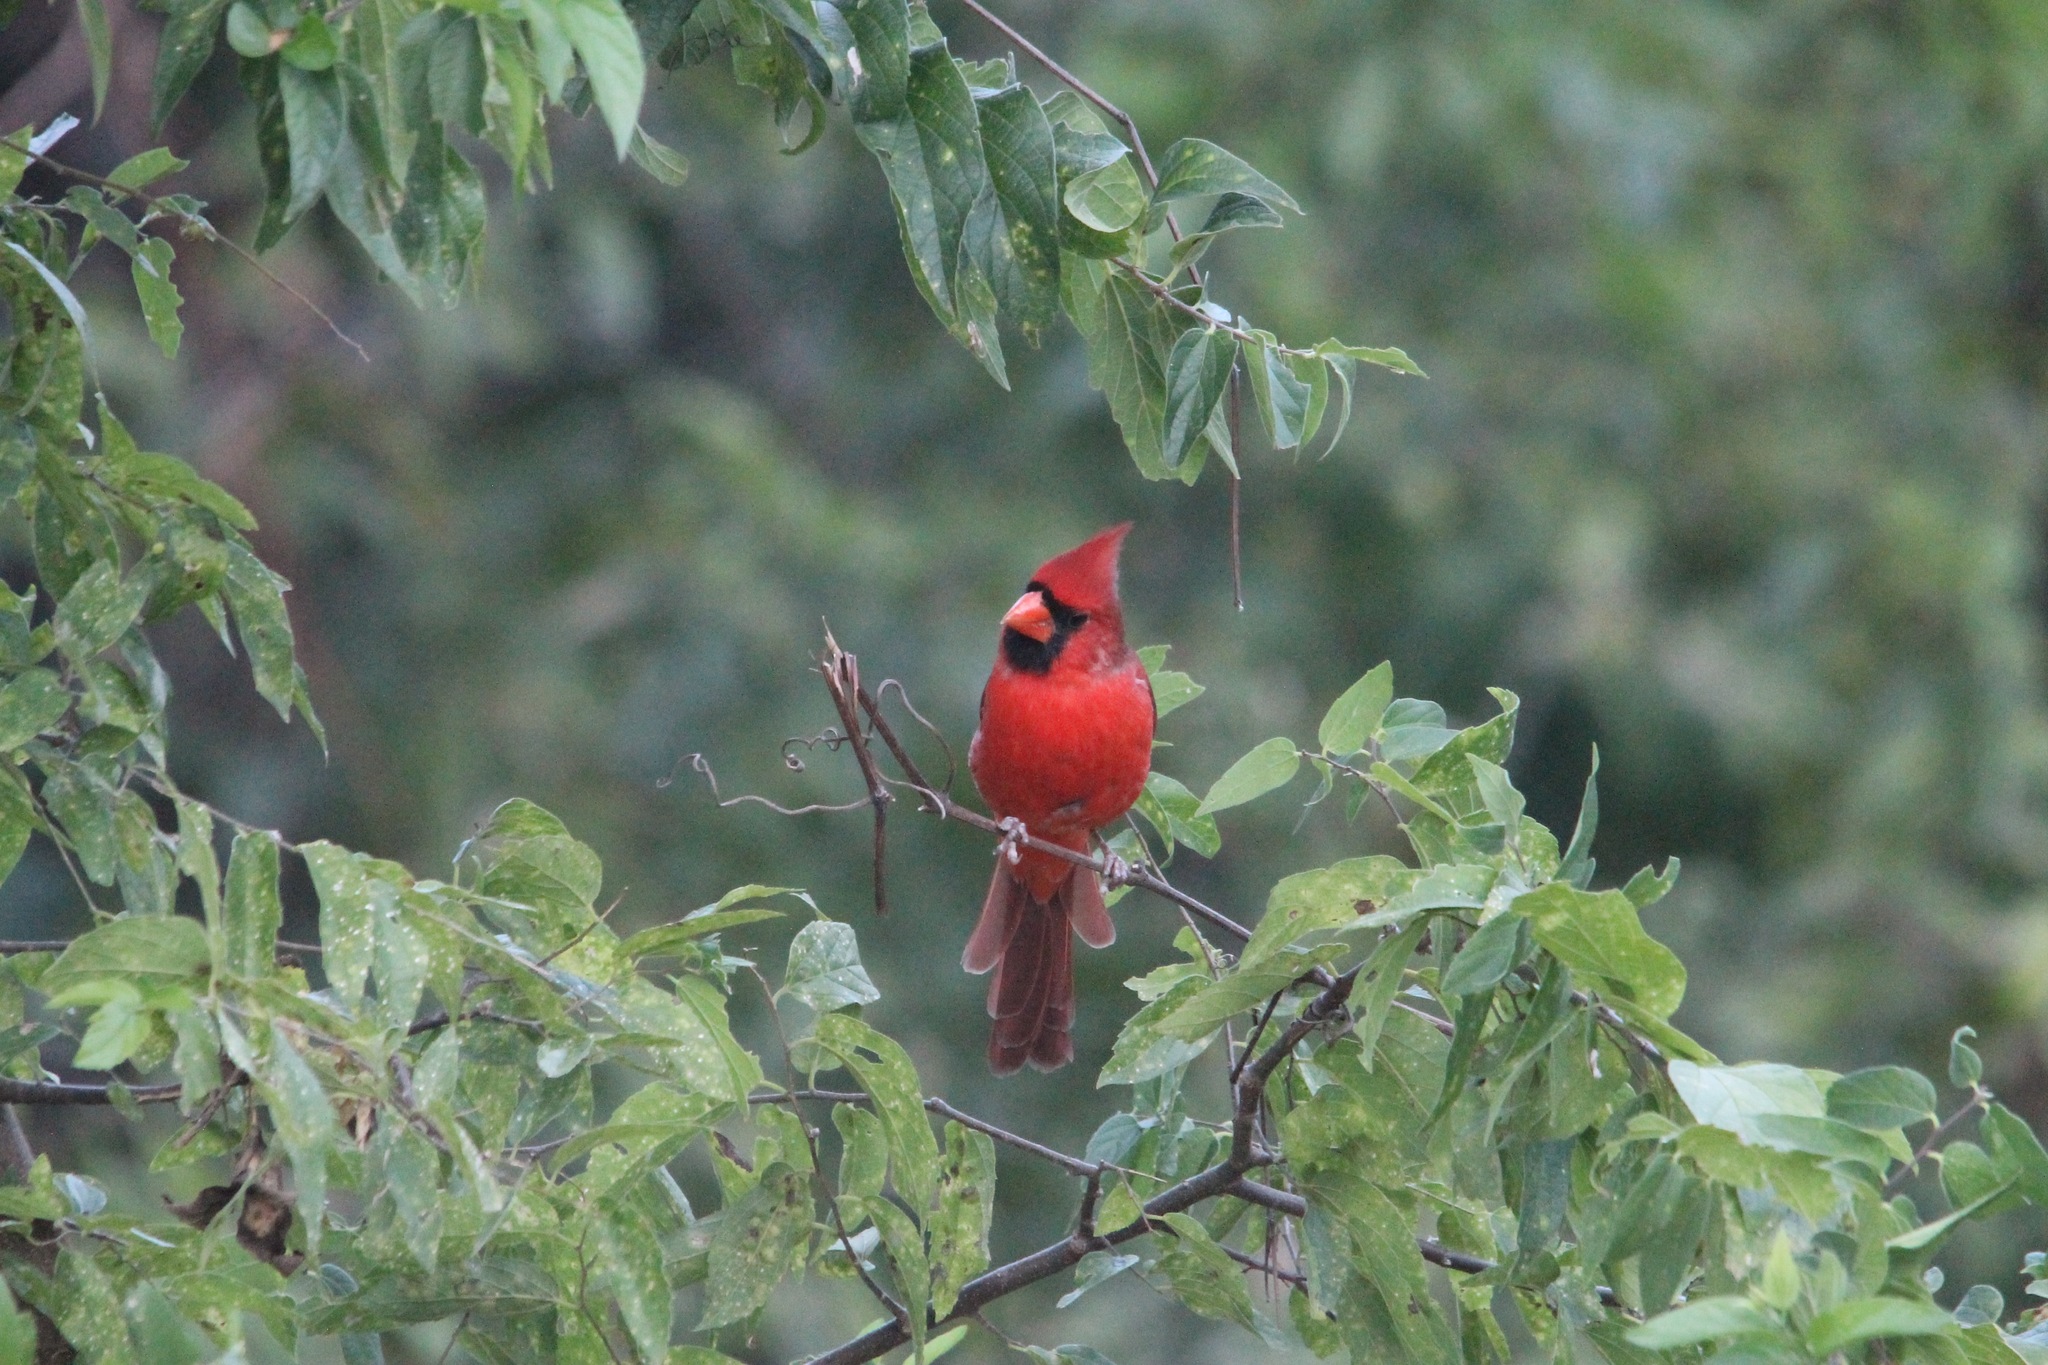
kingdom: Animalia
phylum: Chordata
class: Aves
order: Passeriformes
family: Cardinalidae
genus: Cardinalis
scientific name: Cardinalis cardinalis
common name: Northern cardinal
